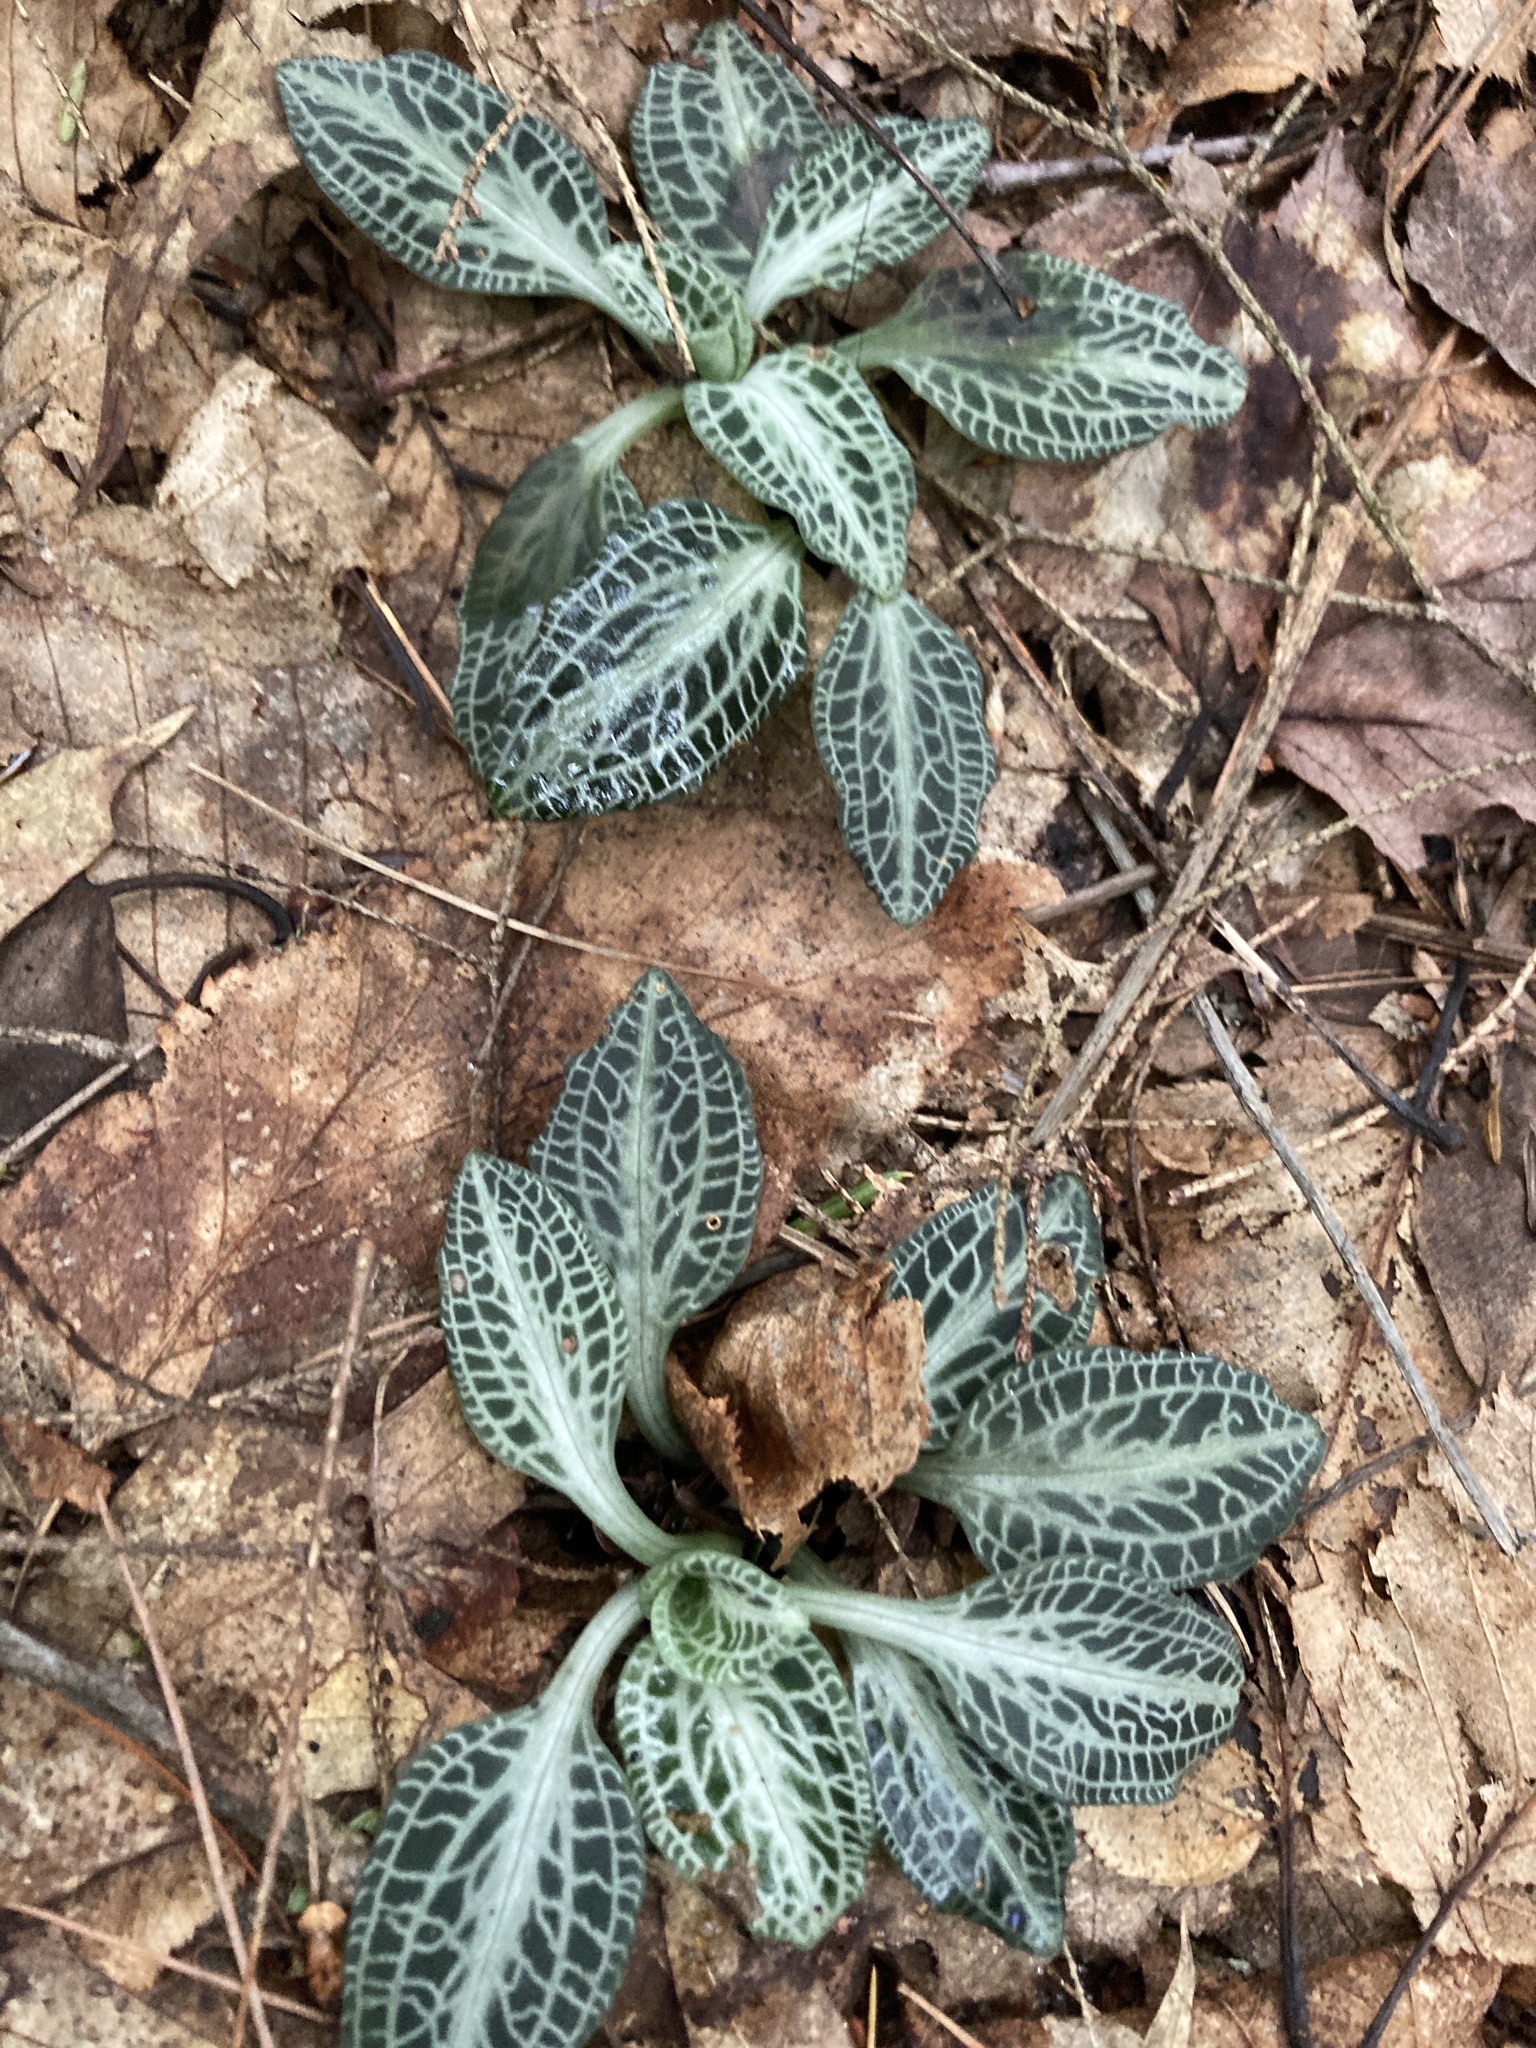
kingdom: Plantae
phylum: Tracheophyta
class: Liliopsida
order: Asparagales
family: Orchidaceae
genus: Goodyera
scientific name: Goodyera pubescens
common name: Downy rattlesnake-plantain
